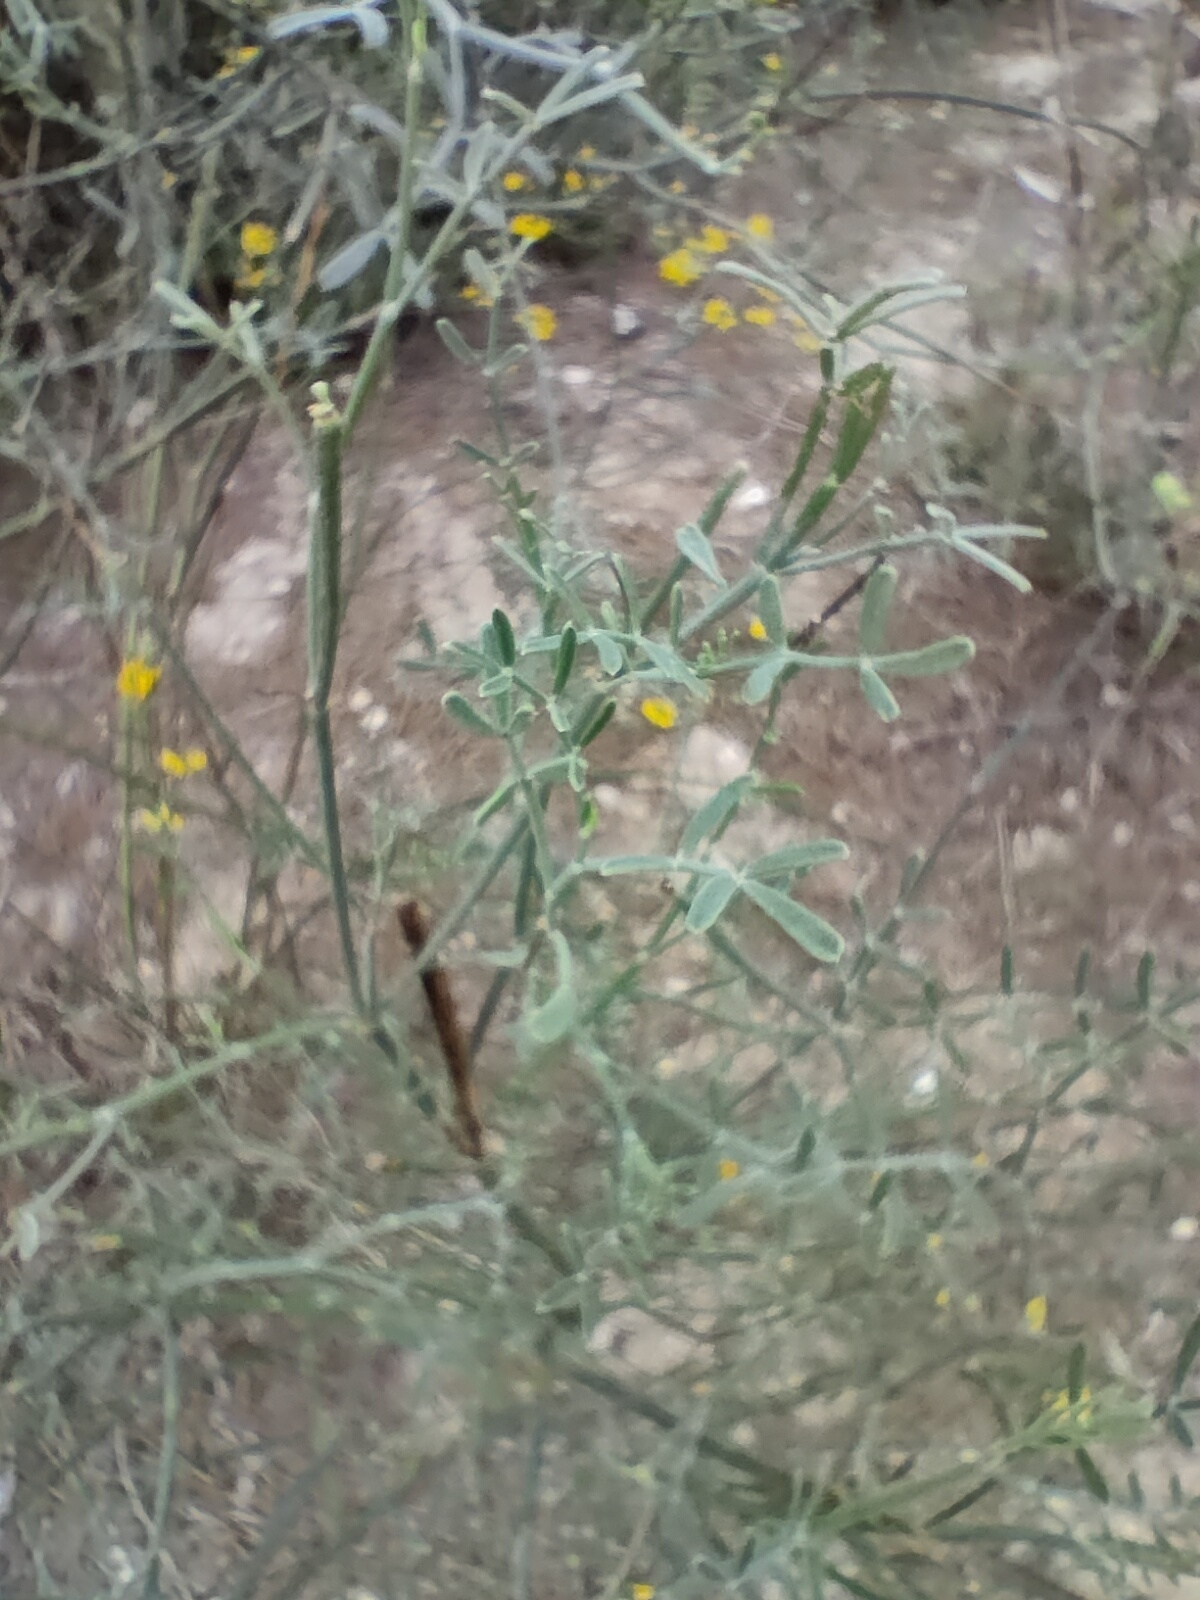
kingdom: Plantae
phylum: Tracheophyta
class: Magnoliopsida
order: Fabales
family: Fabaceae
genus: Coronilla
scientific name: Coronilla juncea
